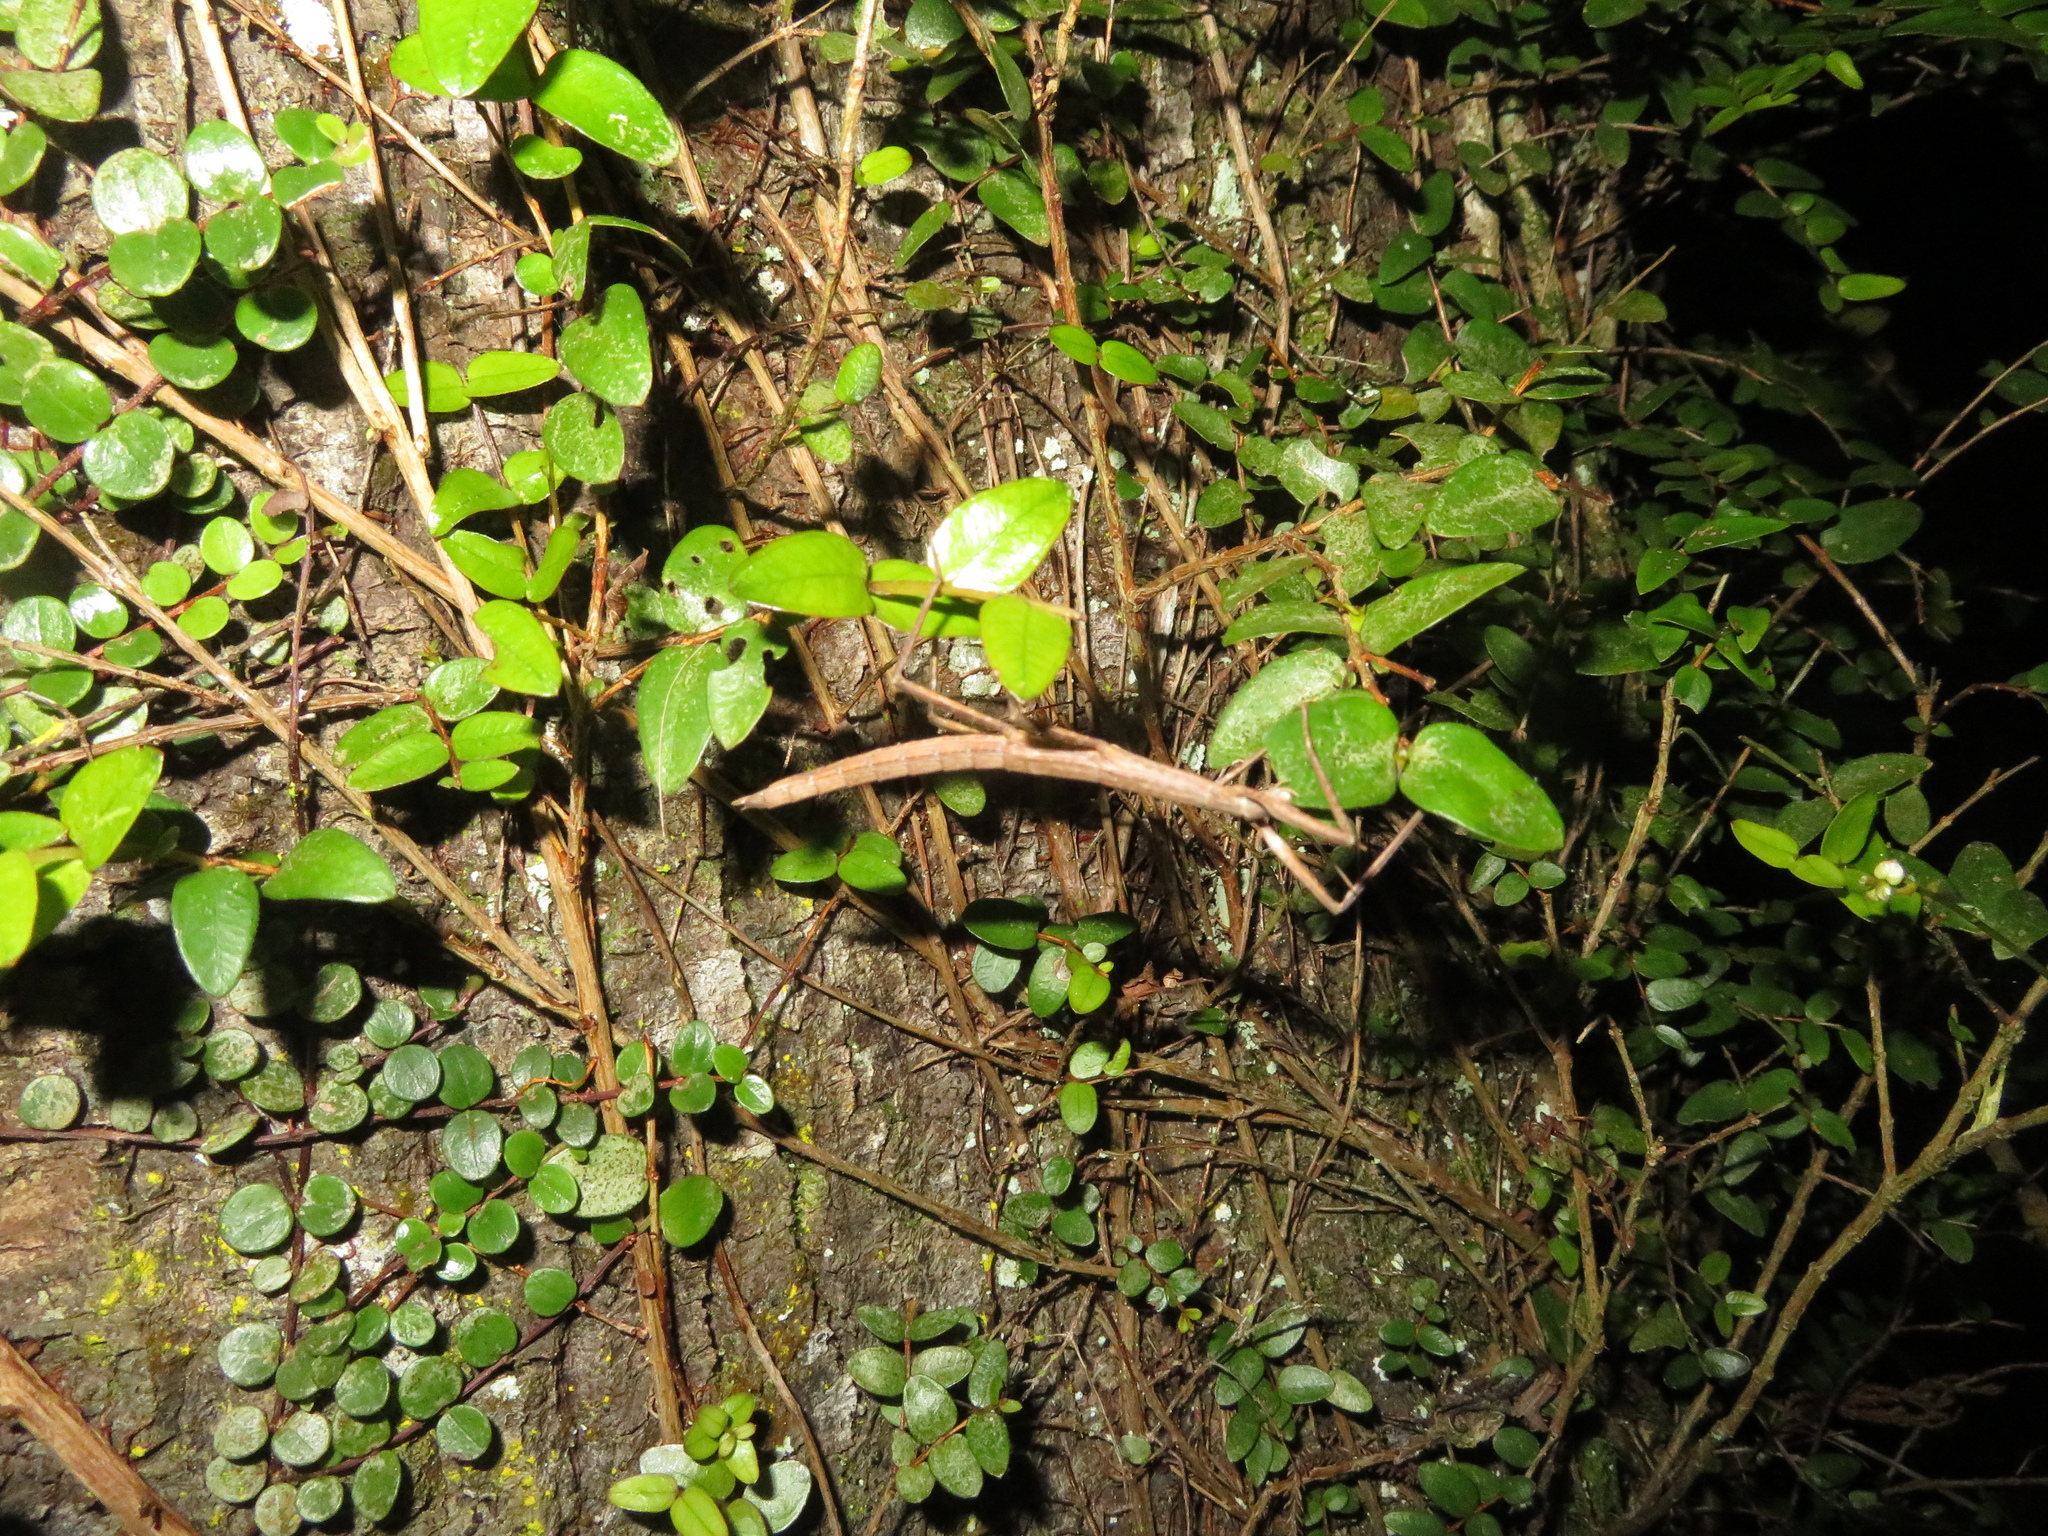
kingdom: Animalia
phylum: Arthropoda
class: Insecta
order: Phasmida
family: Phasmatidae
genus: Tectarchus
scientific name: Tectarchus huttoni
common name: The common ridge-backed stick insect
